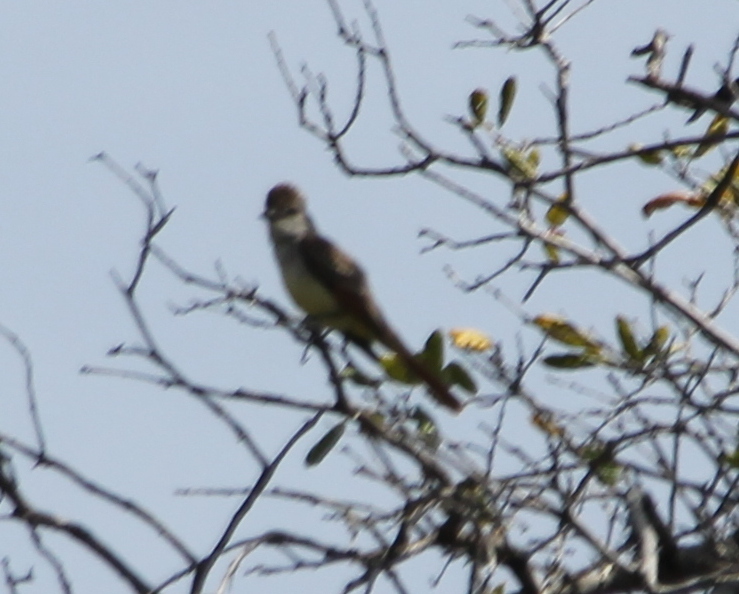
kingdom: Animalia
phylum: Chordata
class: Aves
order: Passeriformes
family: Tyrannidae
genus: Myiarchus
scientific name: Myiarchus cinerascens
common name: Ash-throated flycatcher
